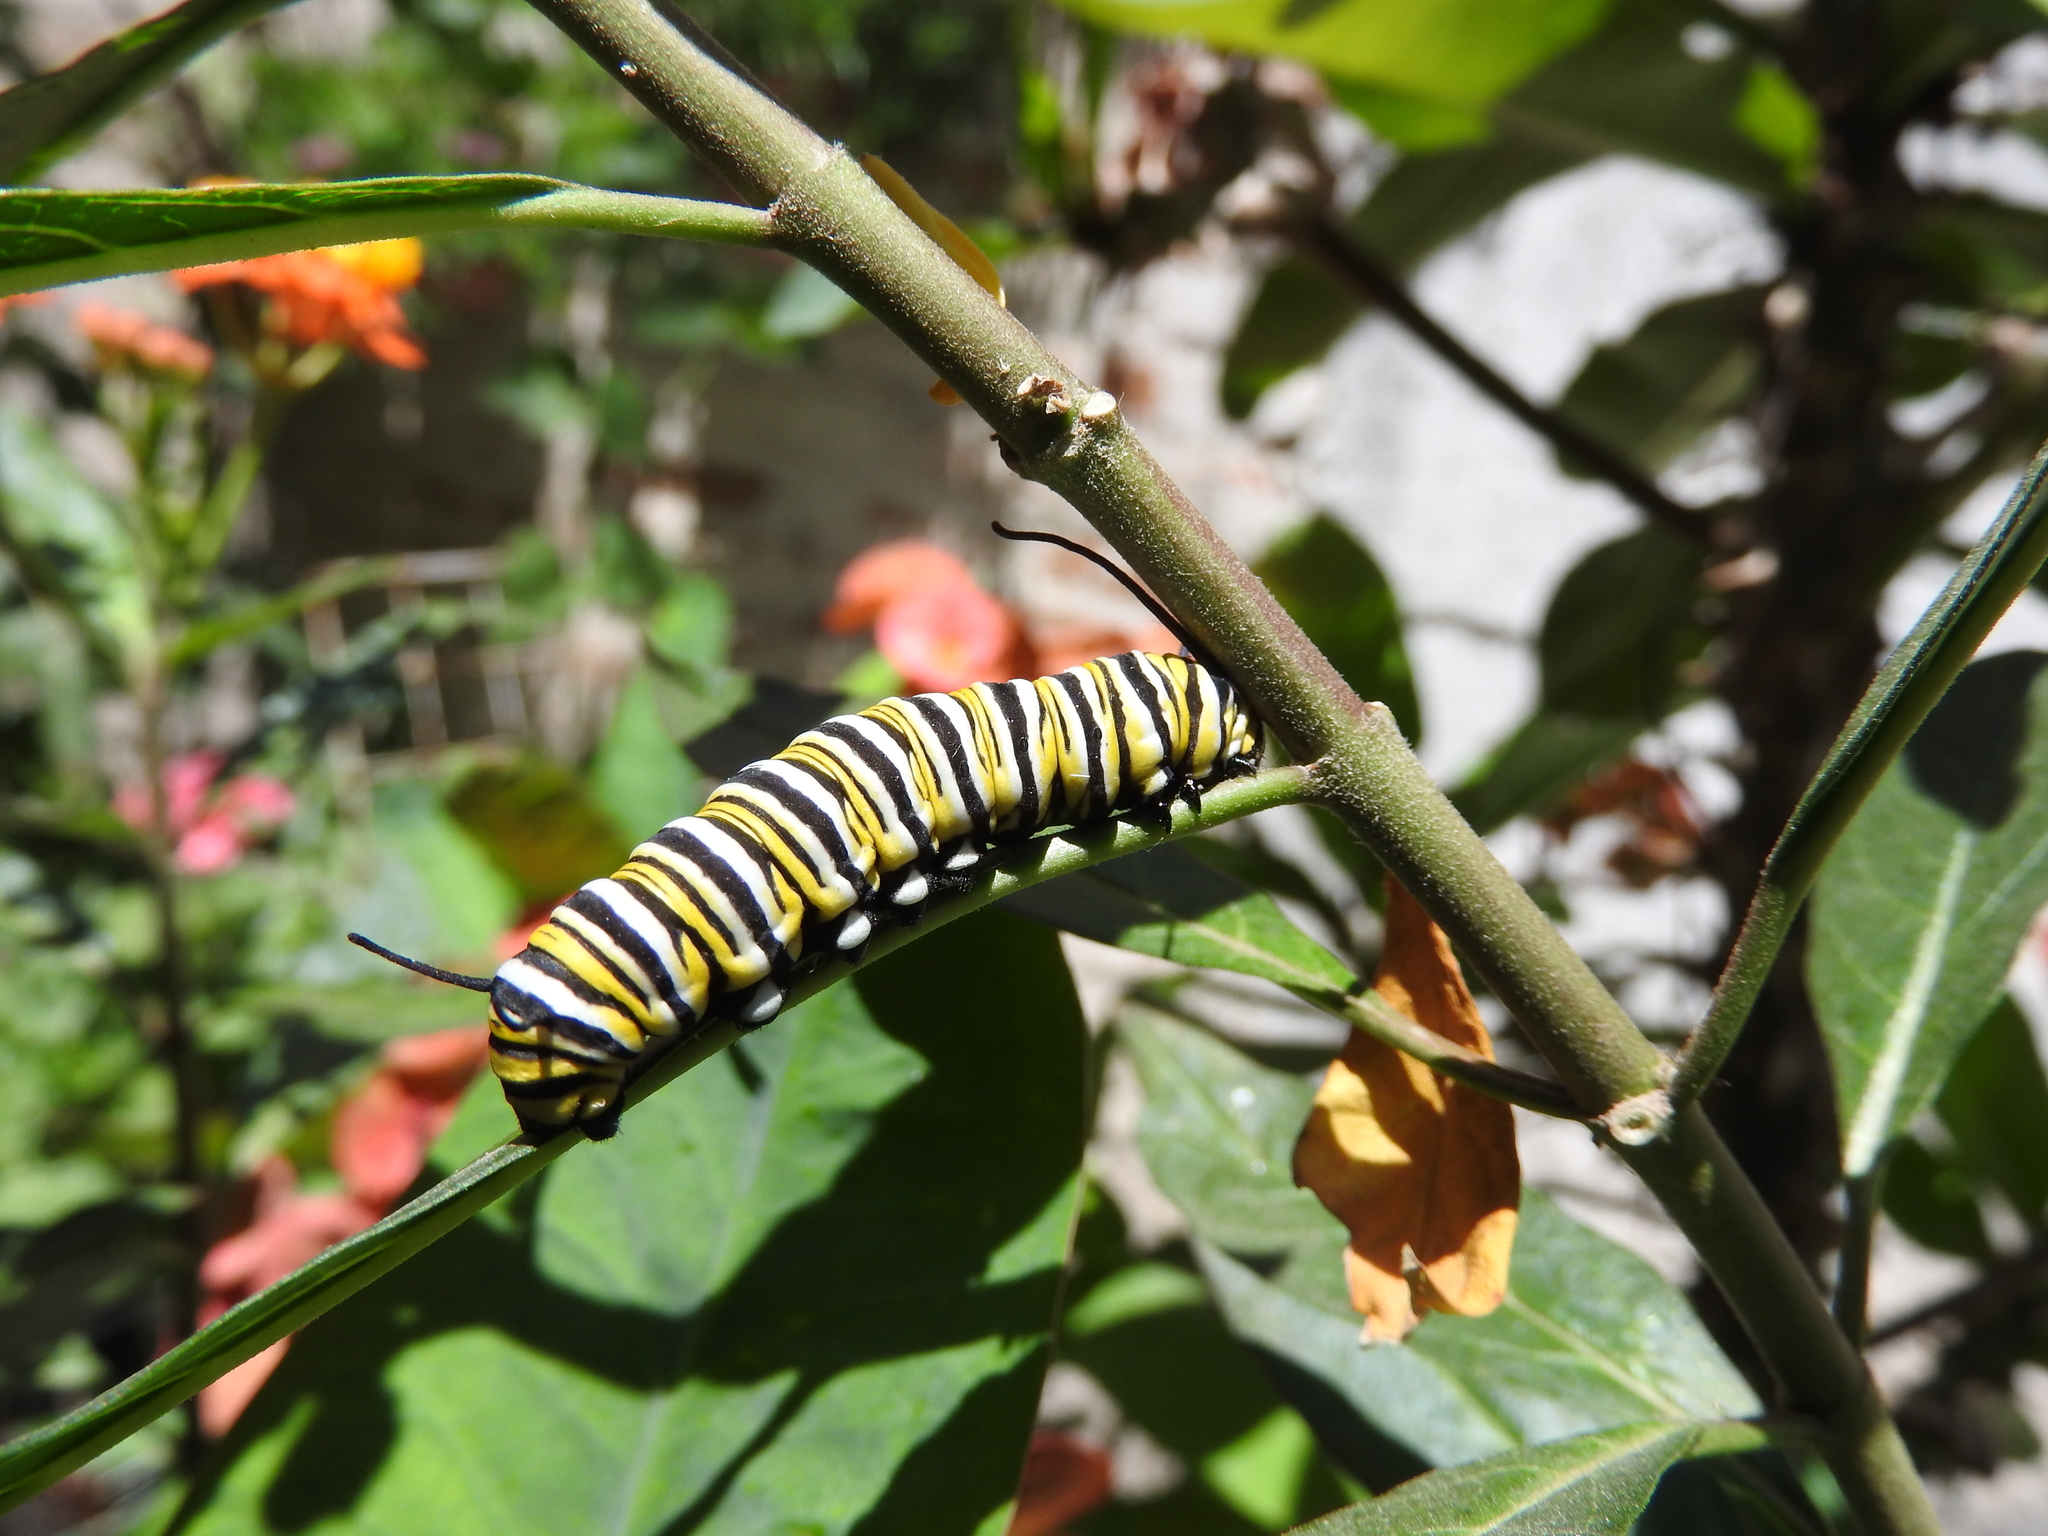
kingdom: Animalia
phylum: Arthropoda
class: Insecta
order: Lepidoptera
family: Nymphalidae
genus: Danaus
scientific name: Danaus plexippus
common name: Monarch
